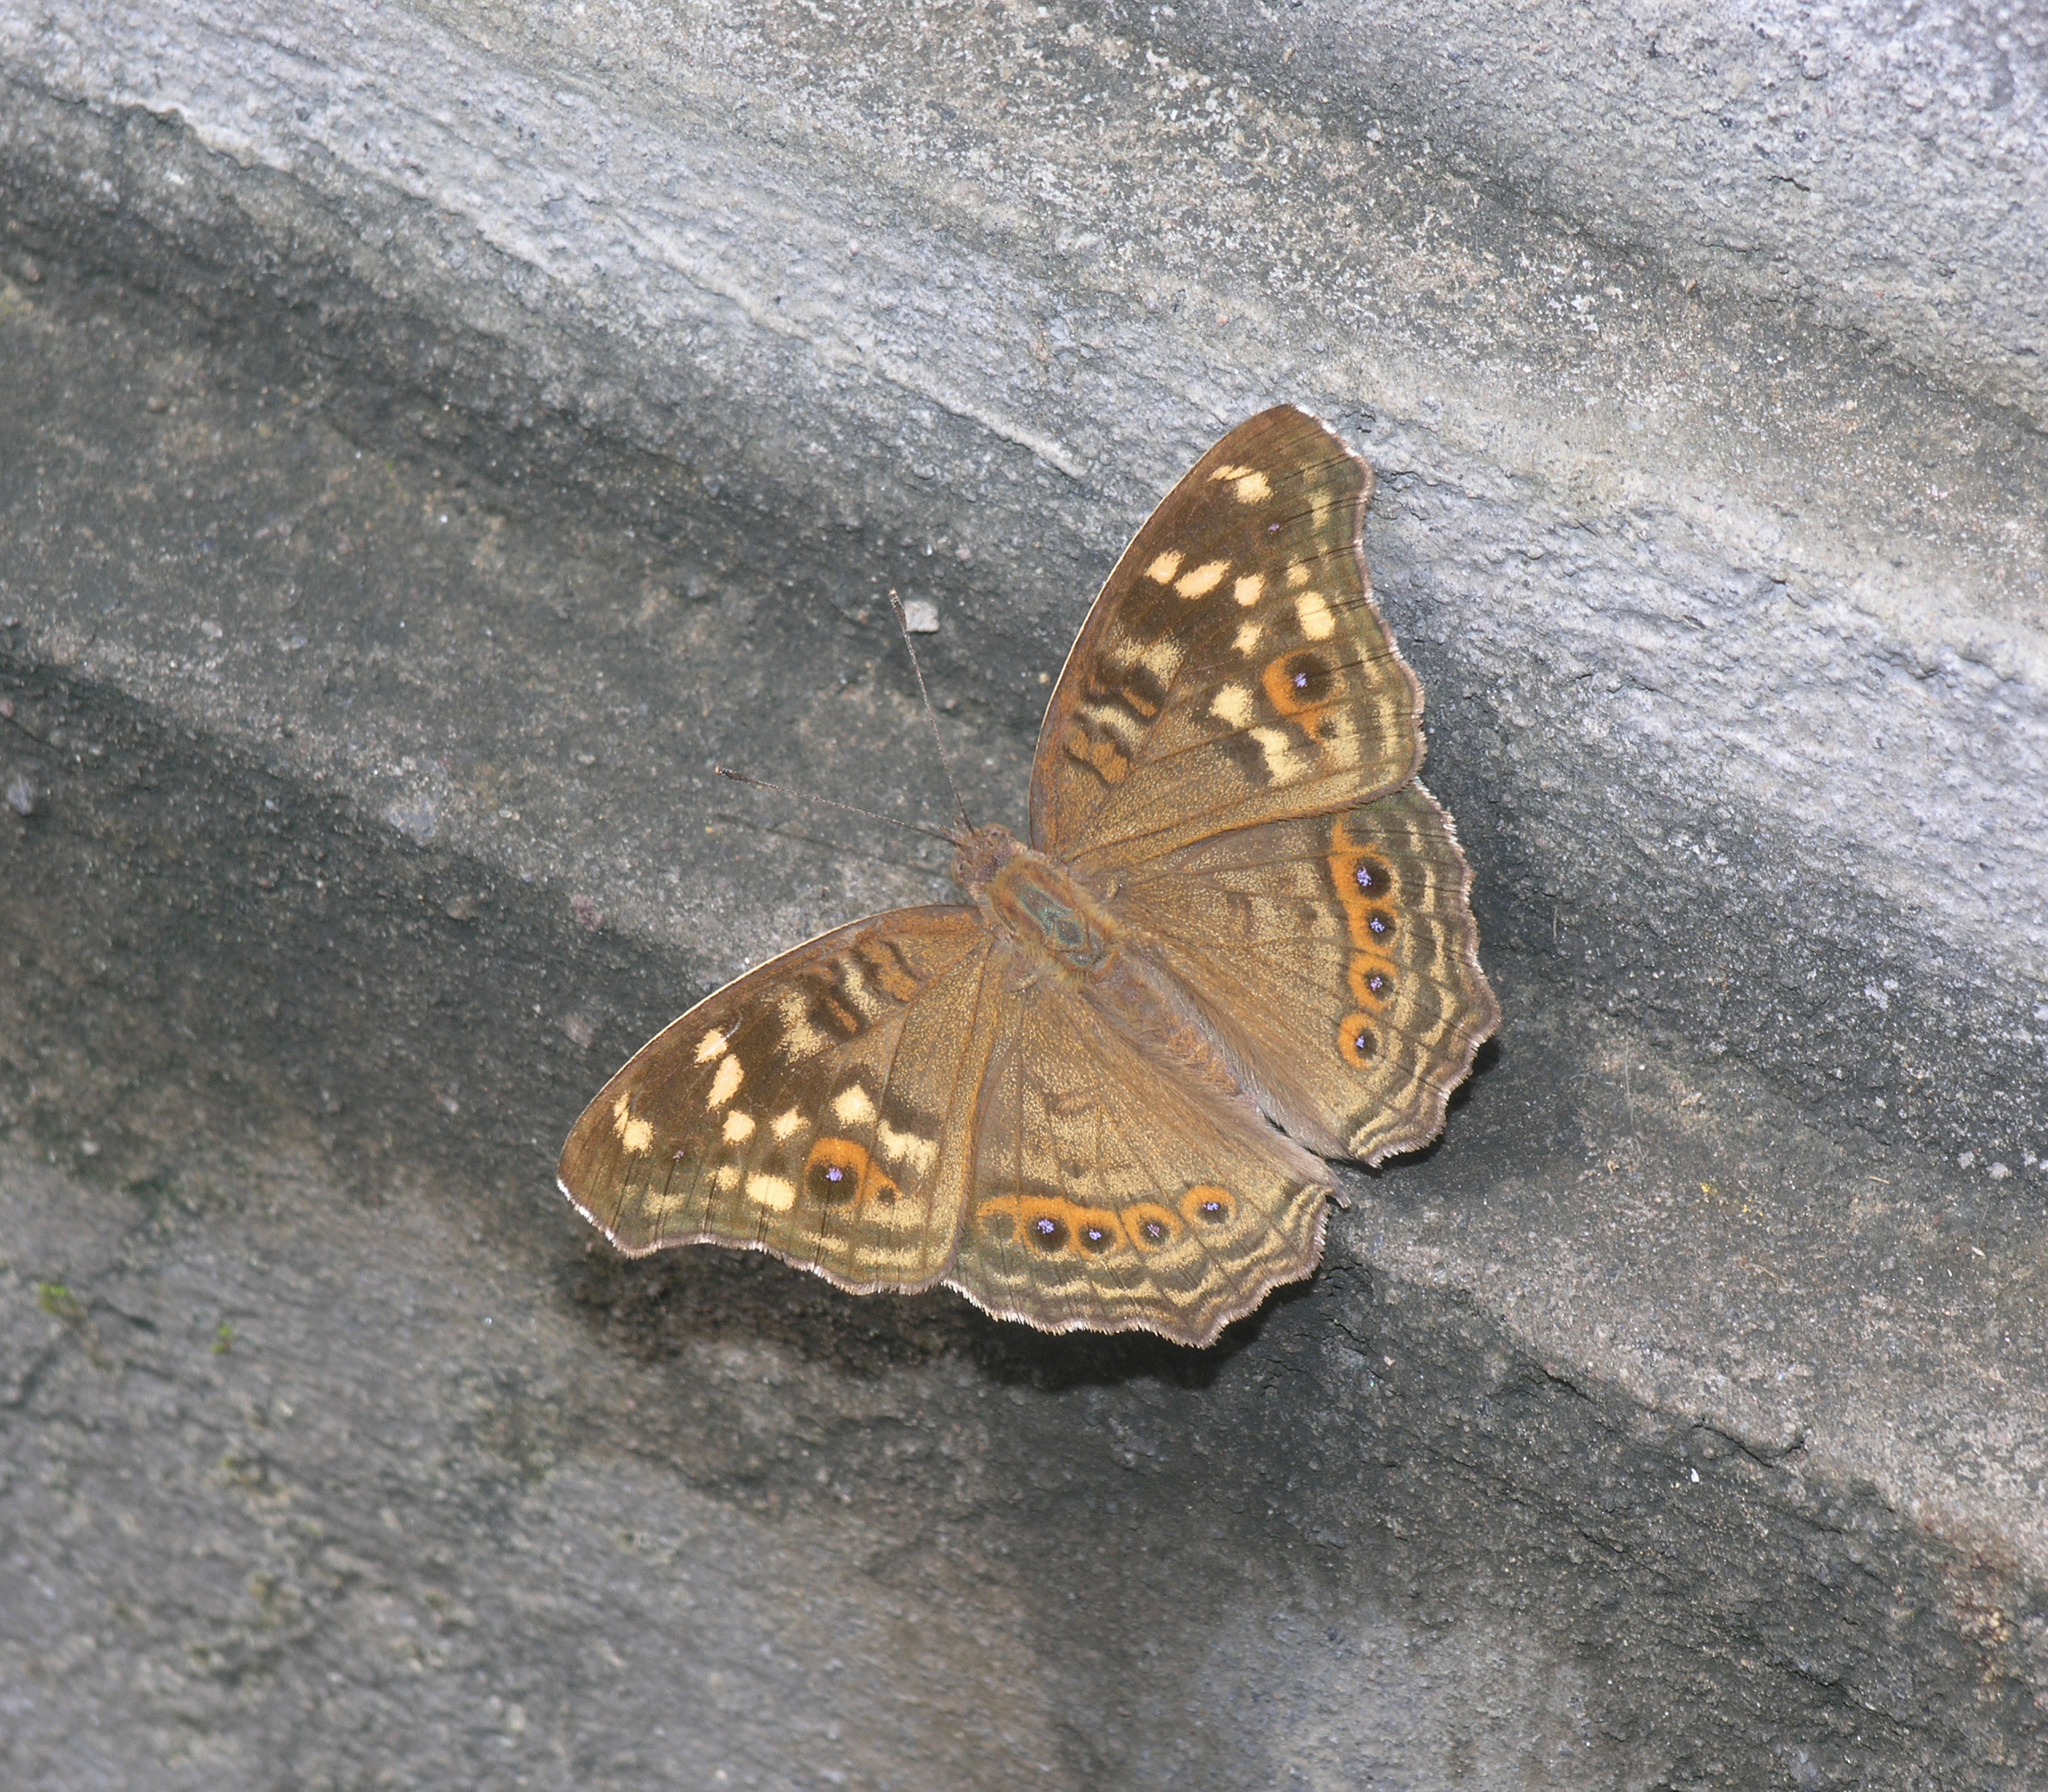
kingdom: Animalia
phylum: Arthropoda
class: Insecta
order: Lepidoptera
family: Nymphalidae
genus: Junonia
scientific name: Junonia erigone
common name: Northern argus
